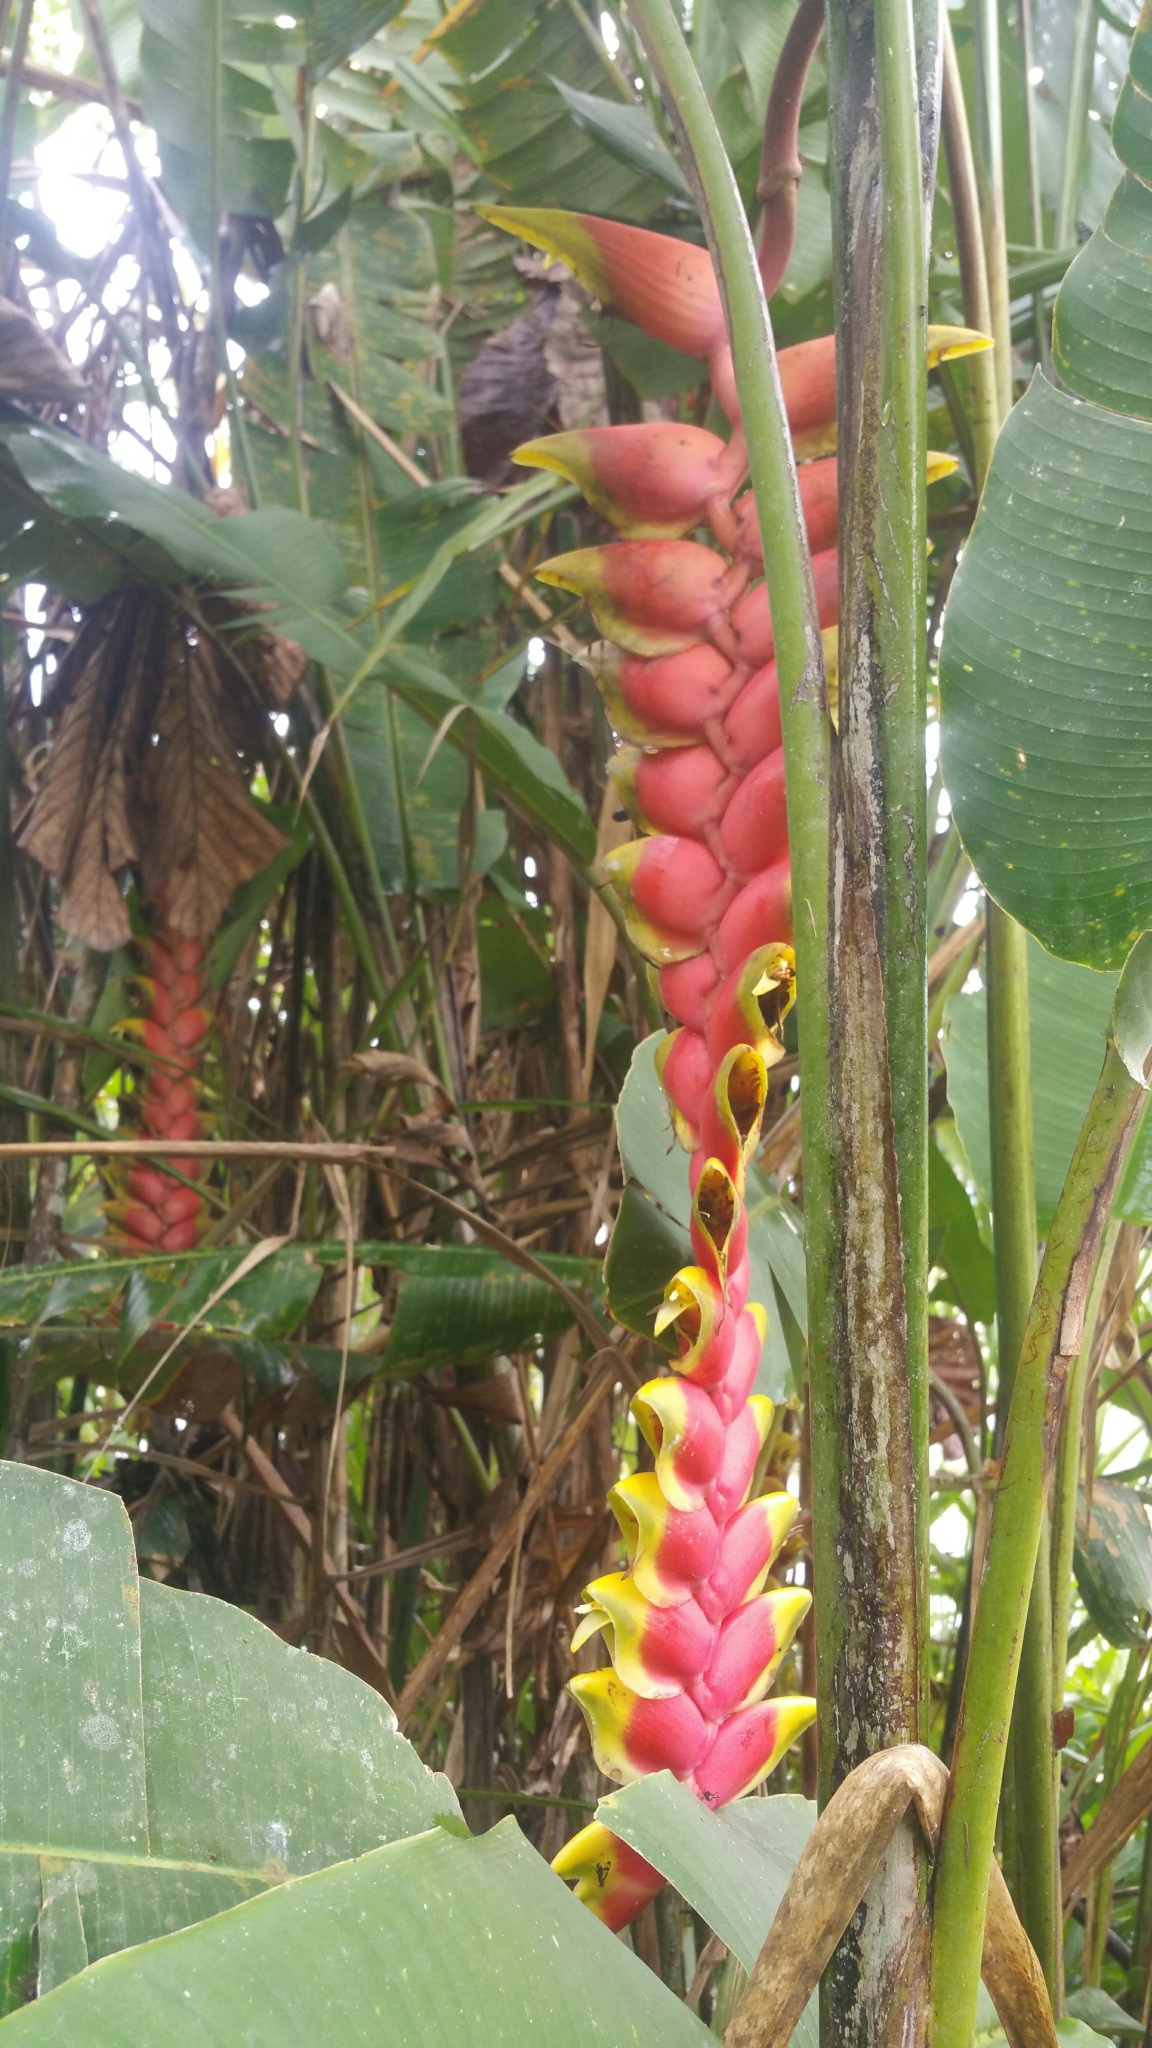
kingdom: Plantae
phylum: Tracheophyta
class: Liliopsida
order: Zingiberales
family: Heliconiaceae
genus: Heliconia
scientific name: Heliconia rostrata
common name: False bird of paradise
